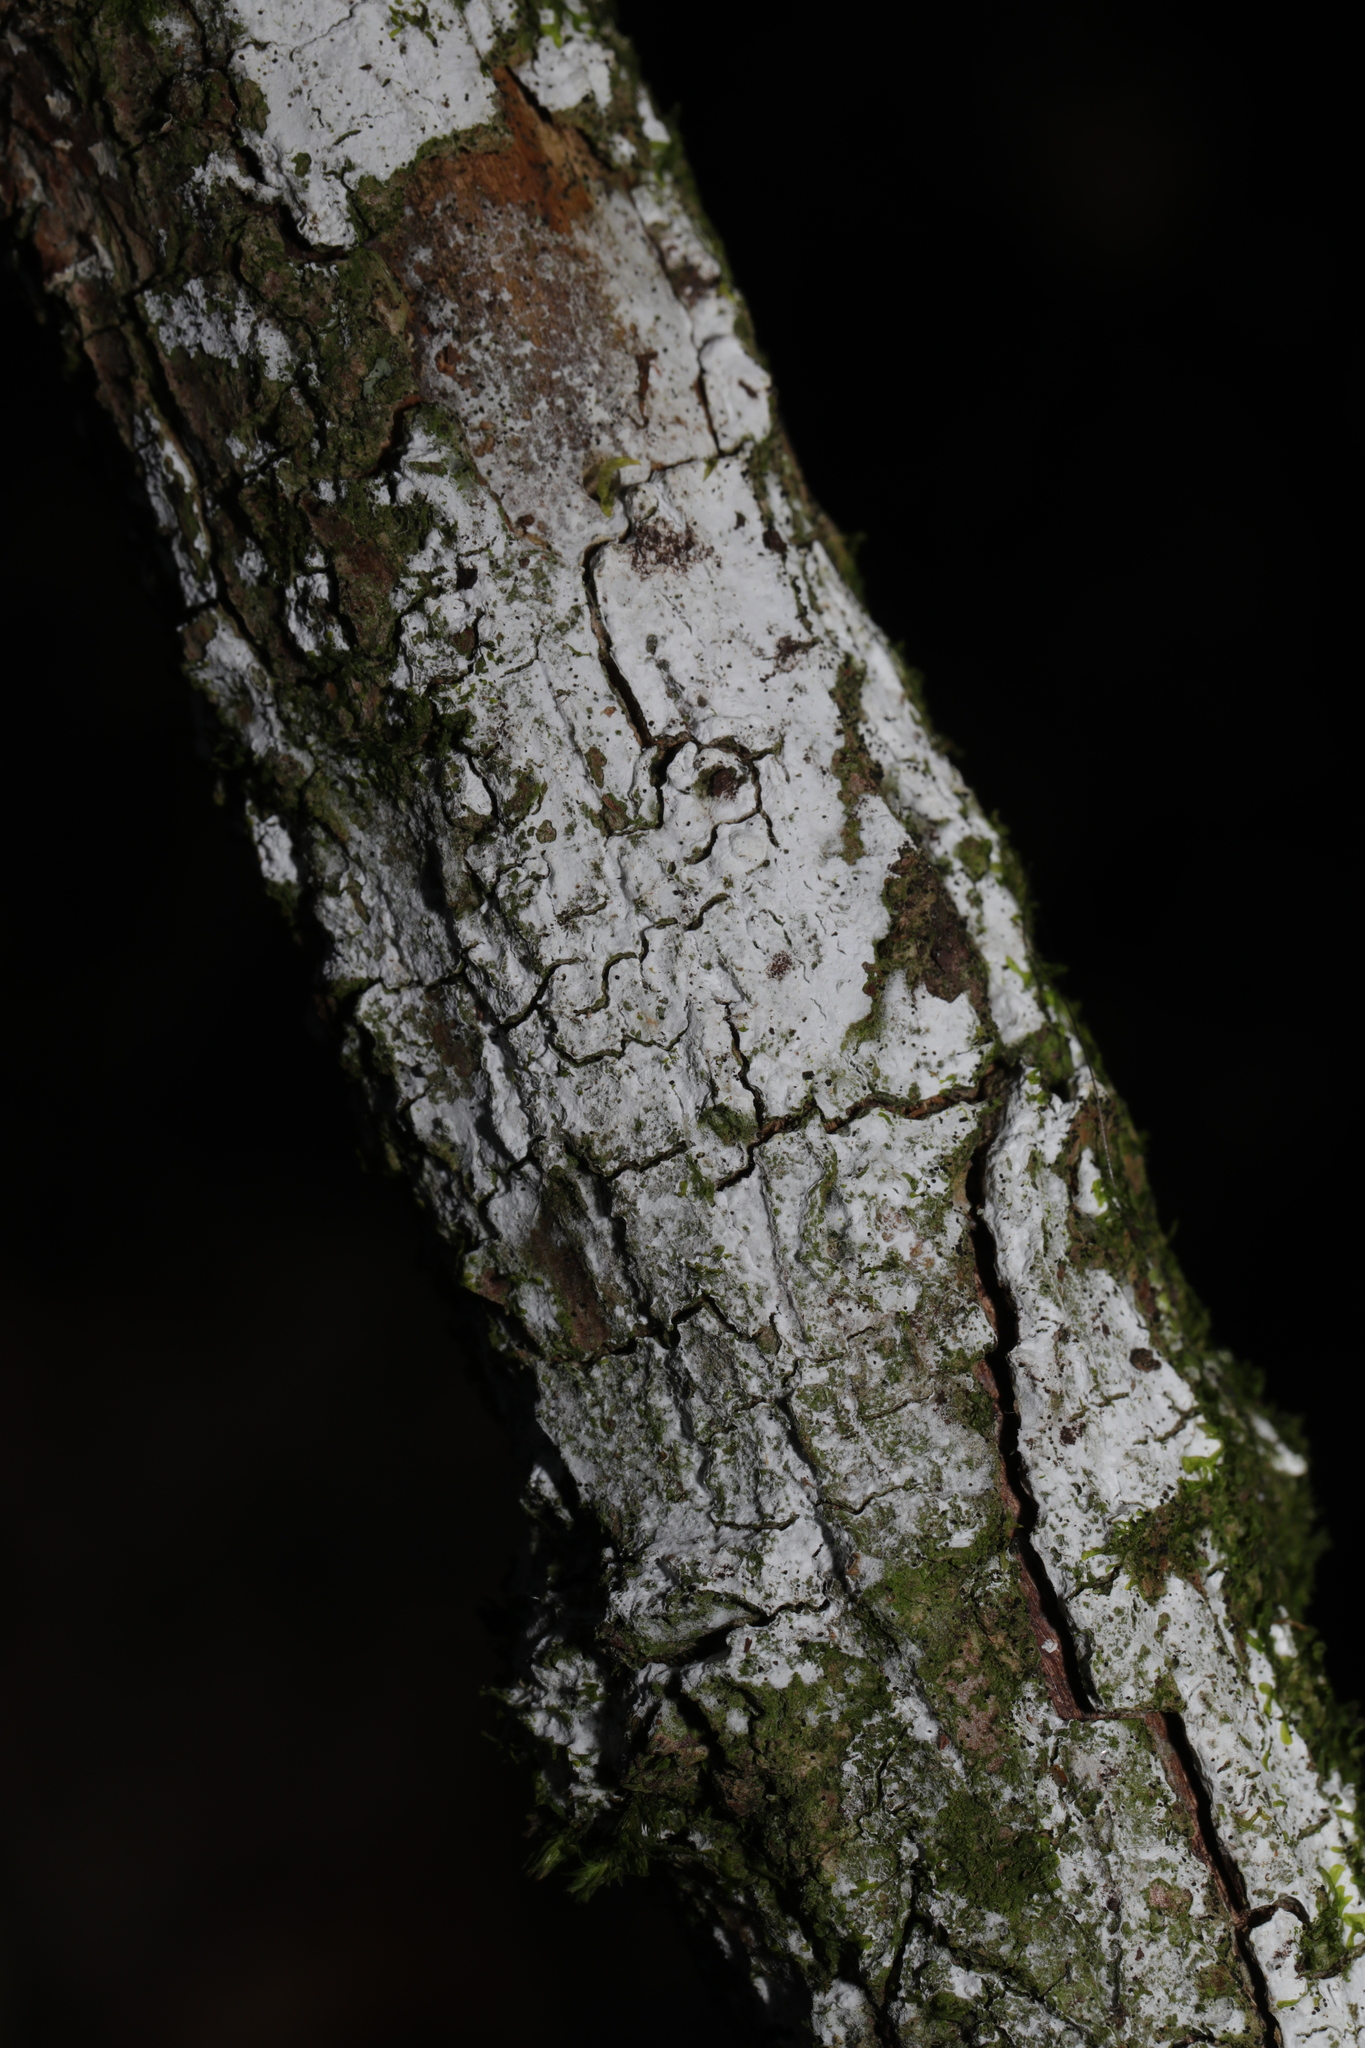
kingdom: Fungi
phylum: Basidiomycota
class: Agaricomycetes
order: Corticiales
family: Corticiaceae
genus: Lyomyces
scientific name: Lyomyces sambuci
